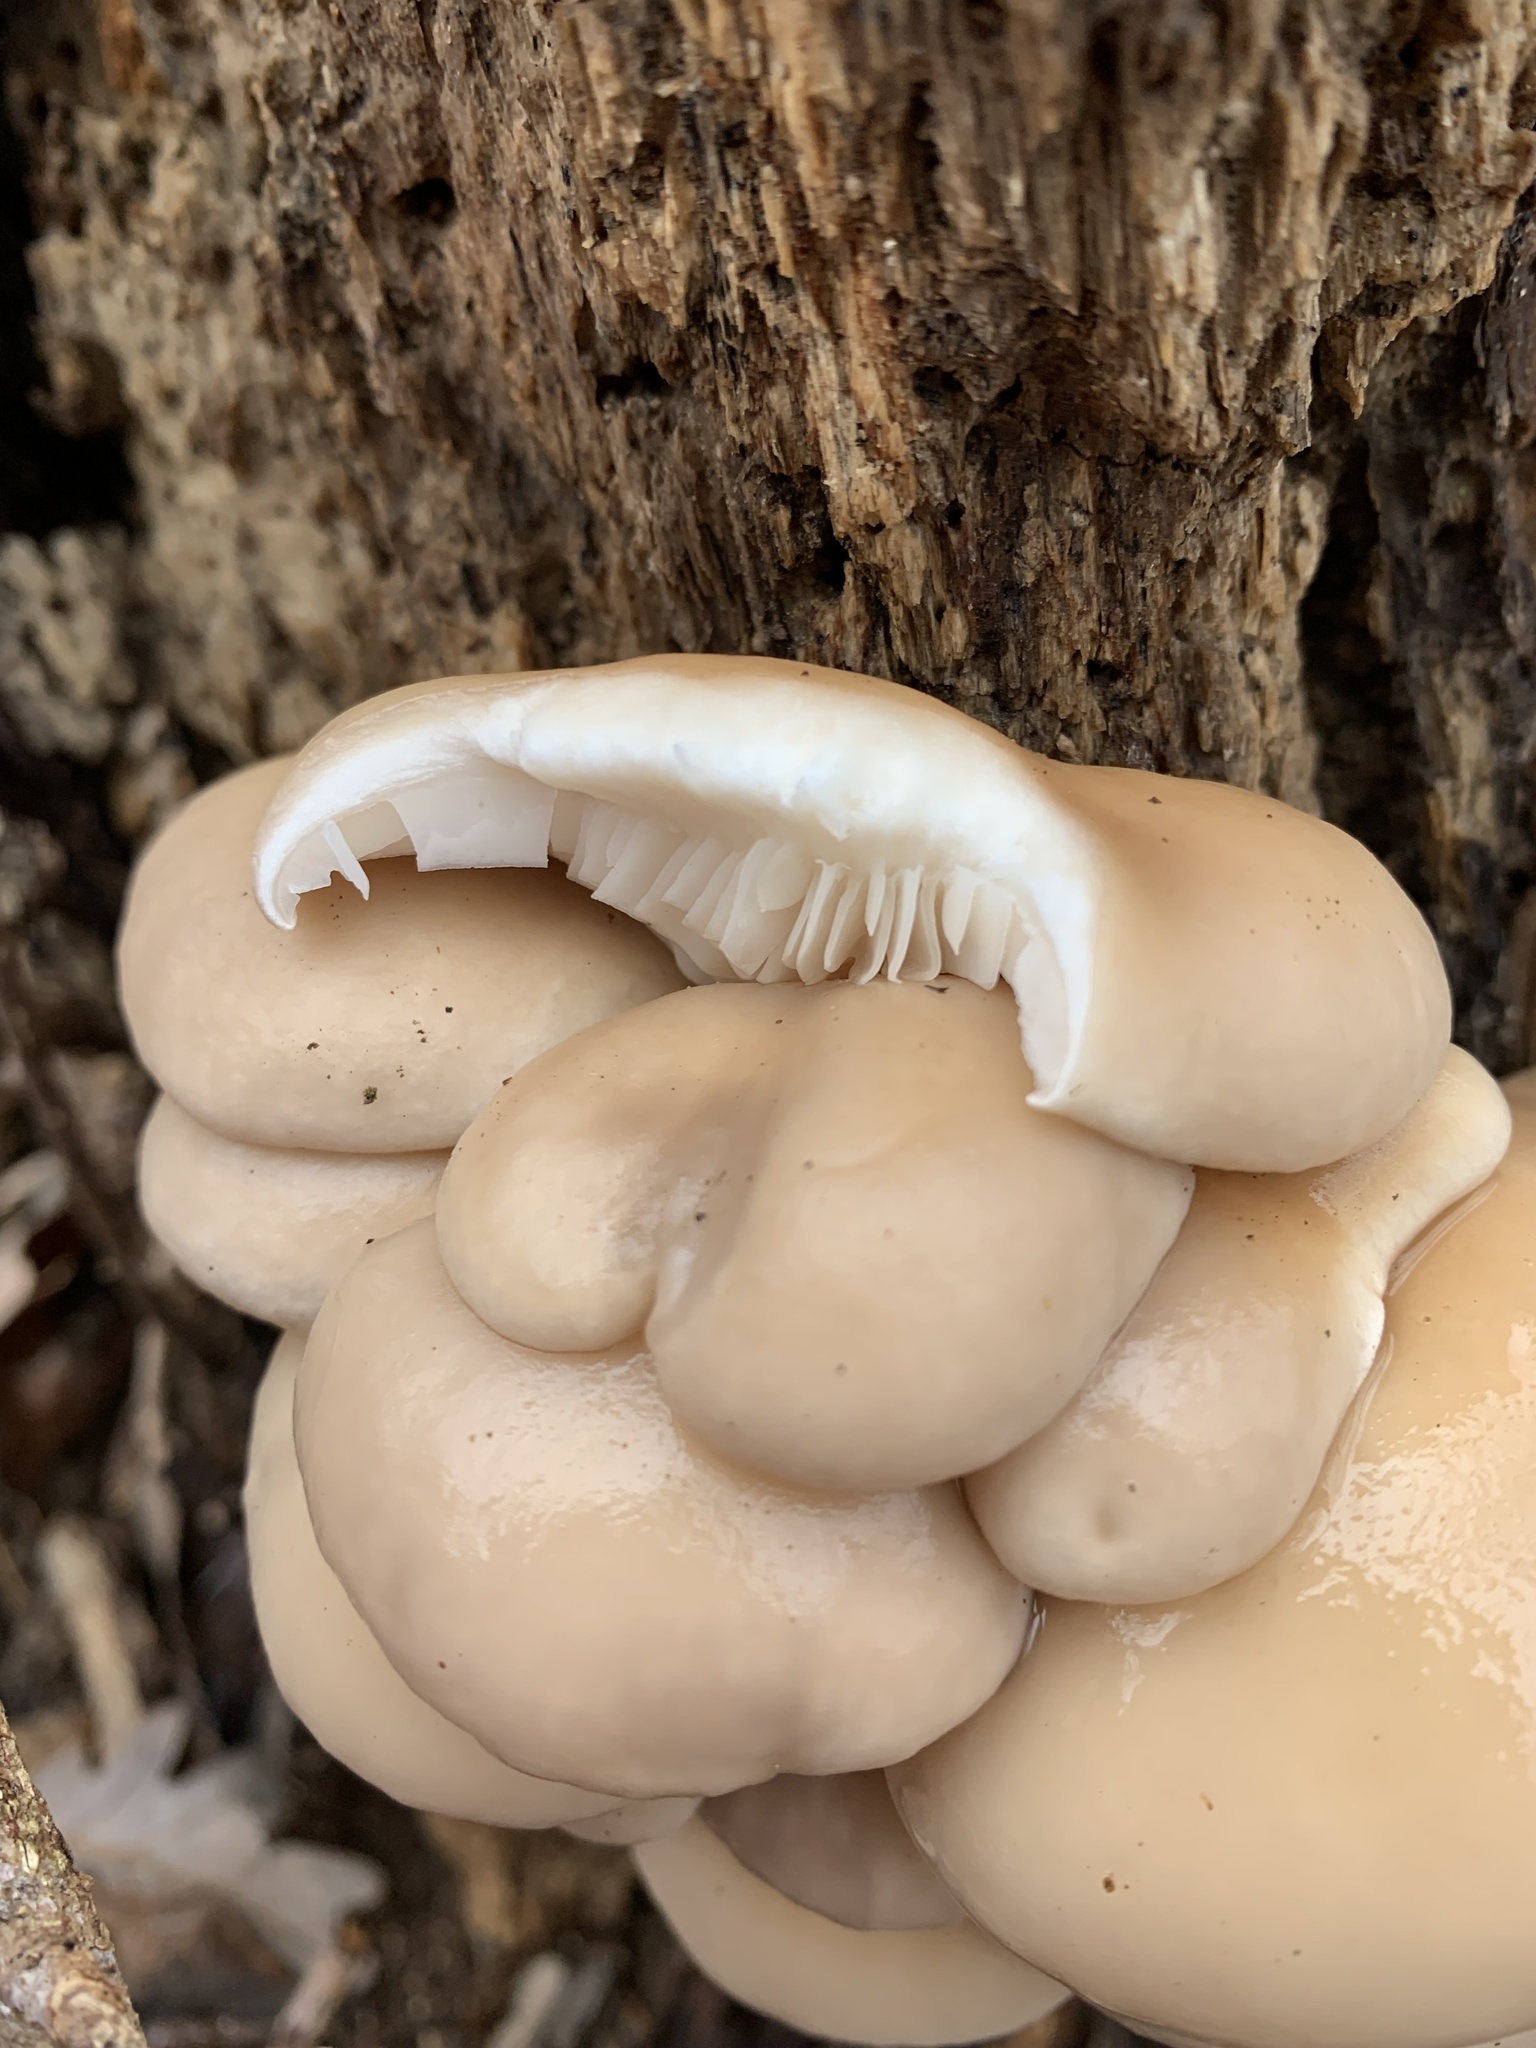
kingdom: Fungi
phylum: Basidiomycota
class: Agaricomycetes
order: Agaricales
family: Pleurotaceae
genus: Pleurotus
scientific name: Pleurotus ostreatus
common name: Oyster mushroom
